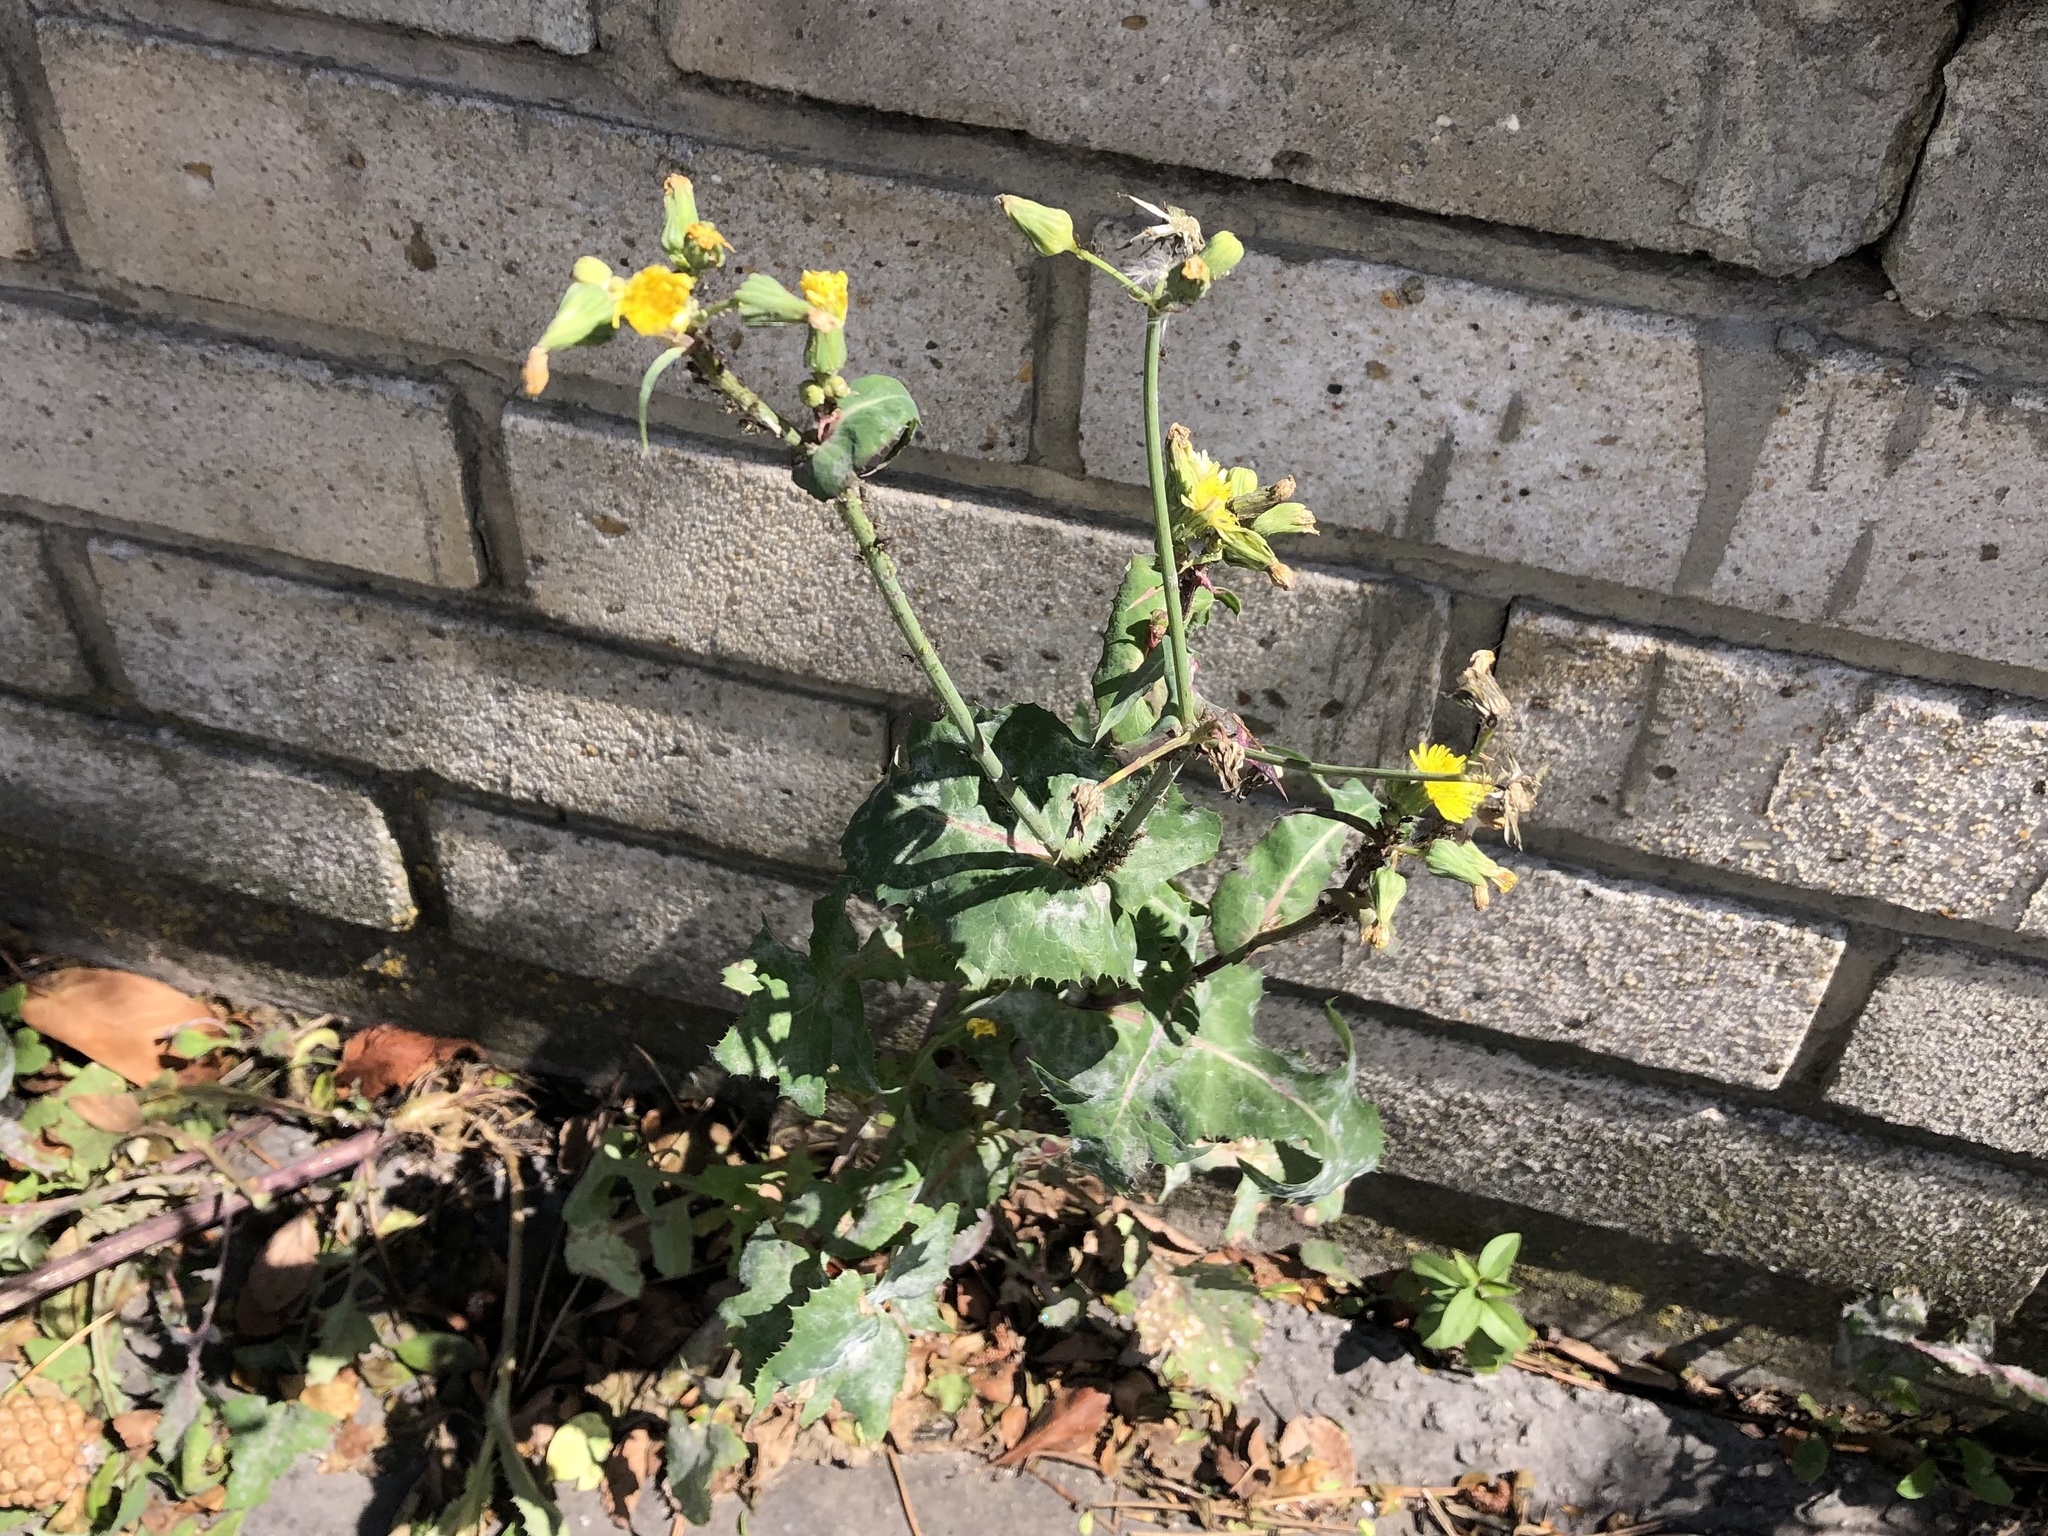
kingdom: Plantae
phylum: Tracheophyta
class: Magnoliopsida
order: Asterales
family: Asteraceae
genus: Sonchus
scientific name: Sonchus oleraceus
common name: Common sowthistle
